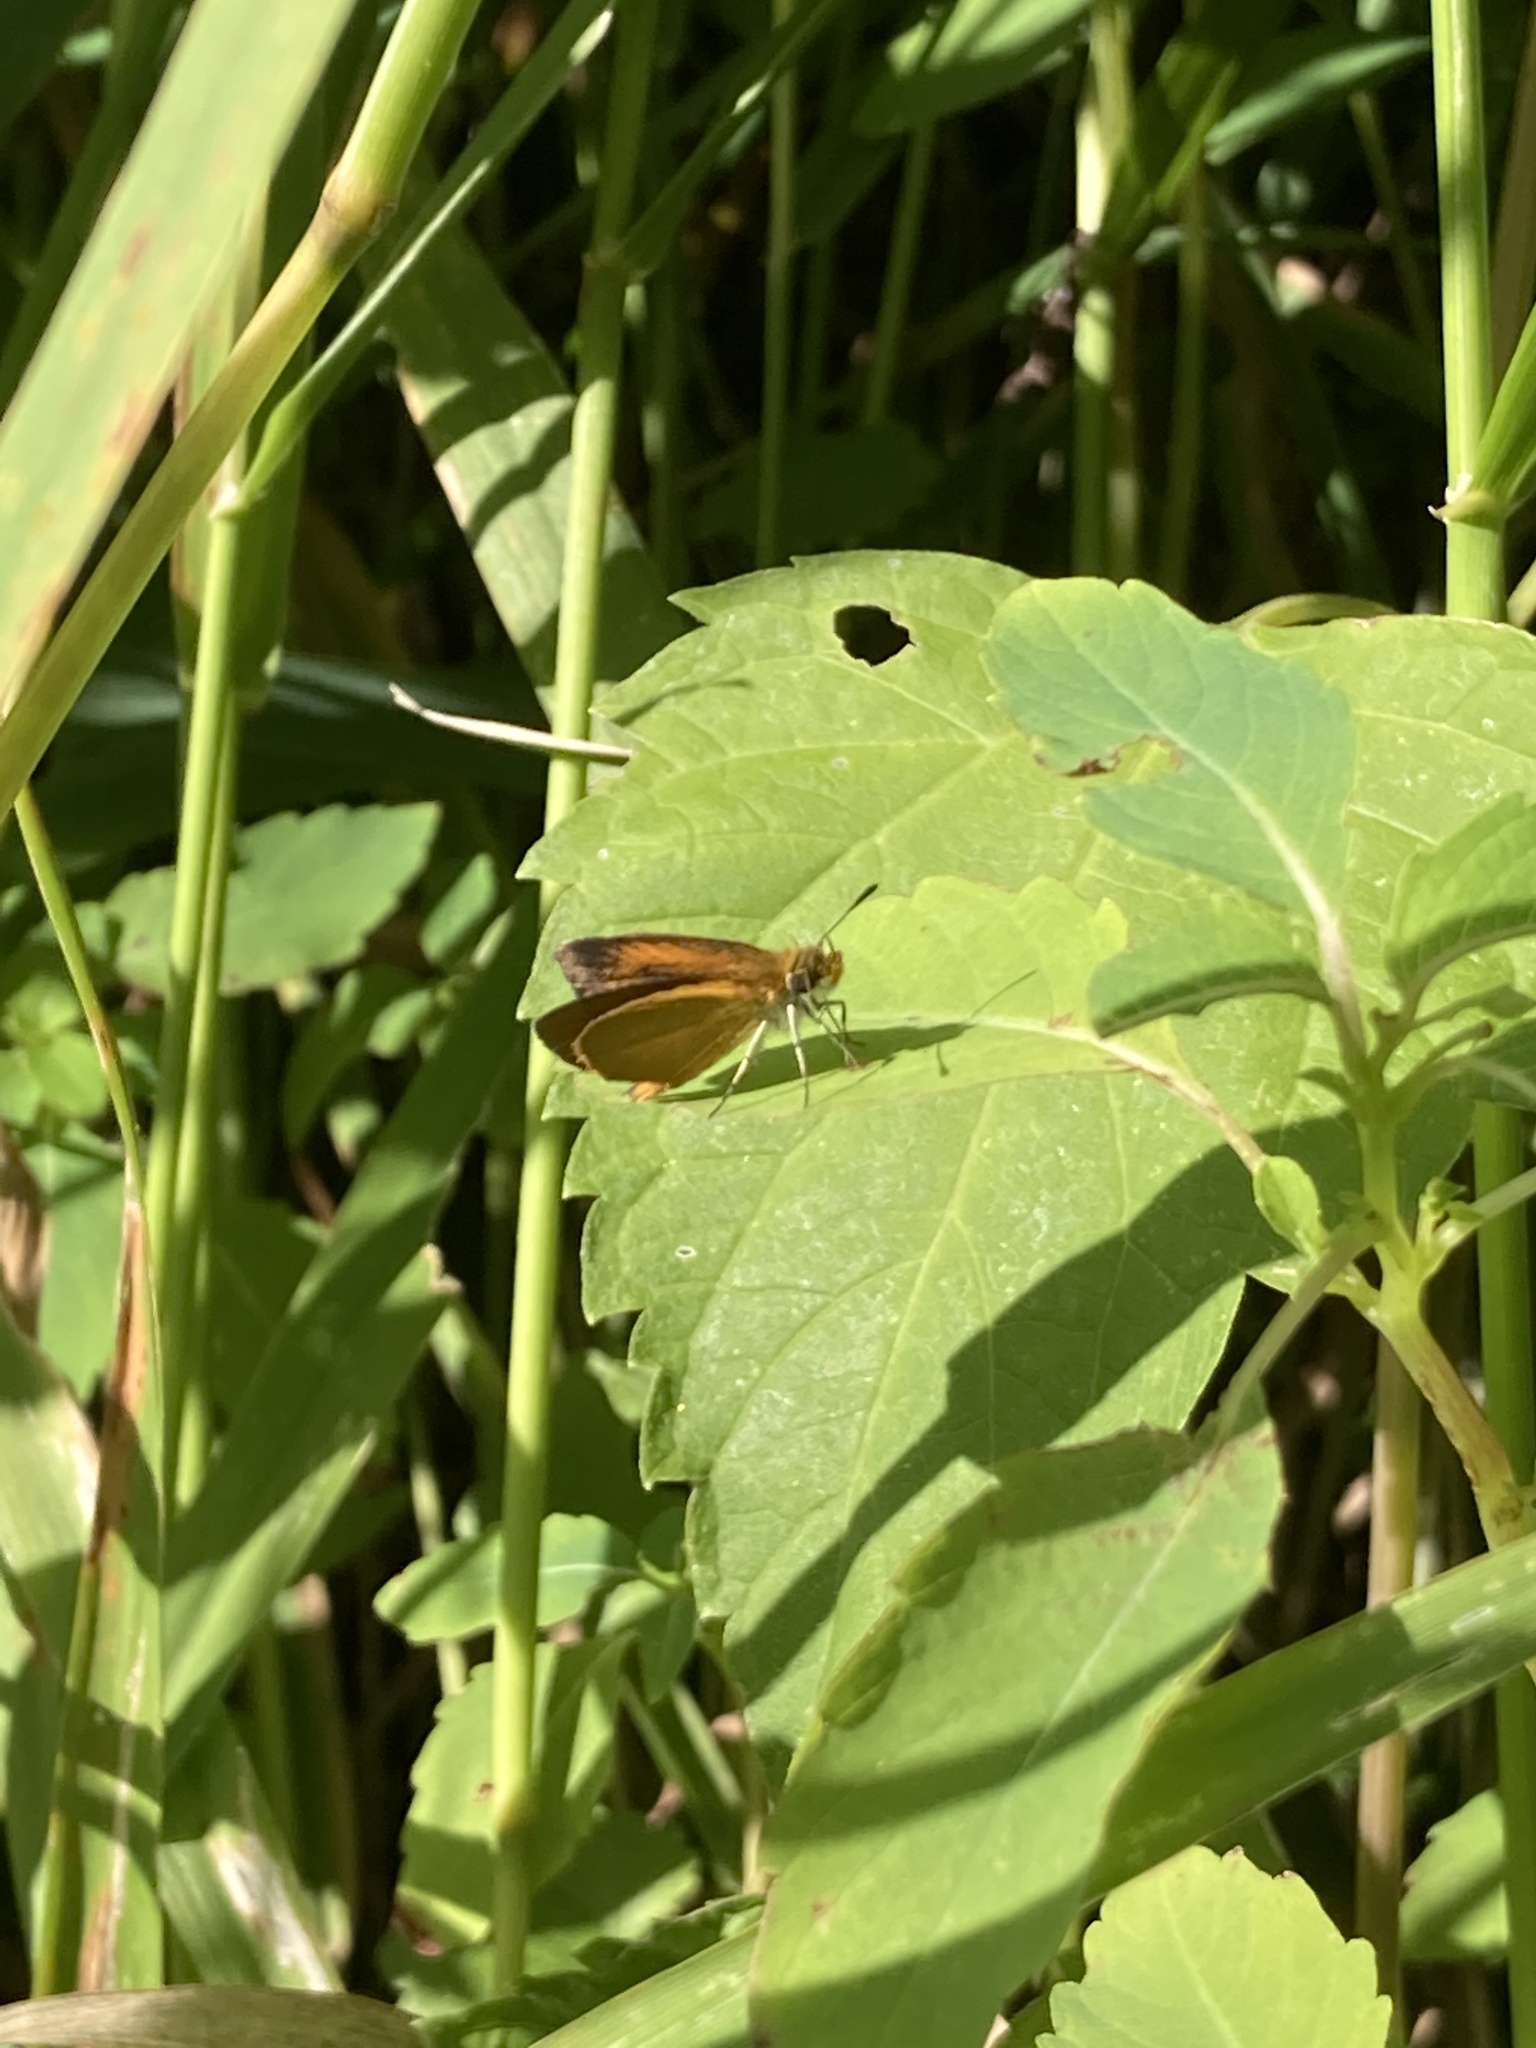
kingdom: Animalia
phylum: Arthropoda
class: Insecta
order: Lepidoptera
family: Hesperiidae
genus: Ancyloxypha
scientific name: Ancyloxypha numitor
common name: Least skipper
